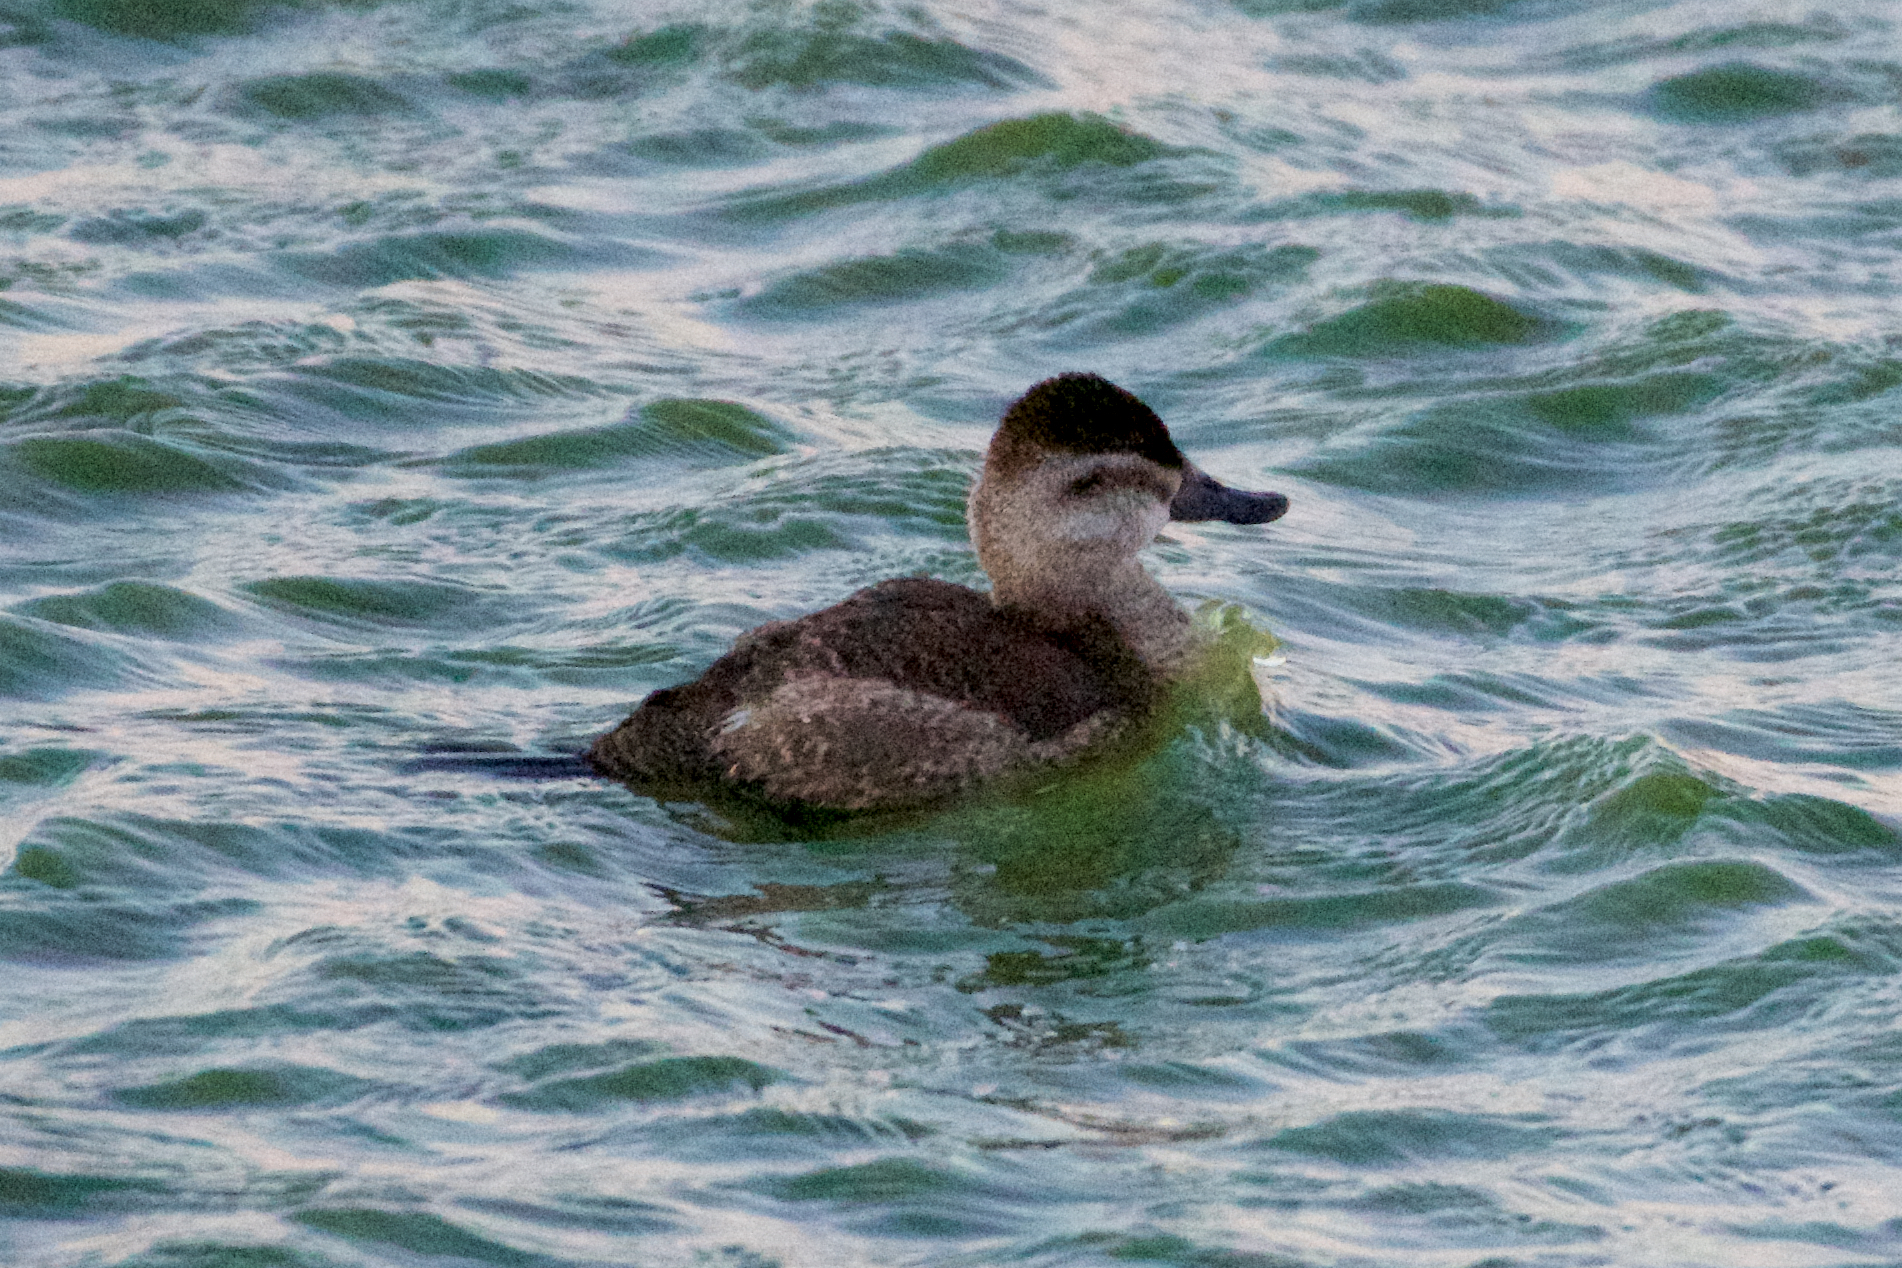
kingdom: Animalia
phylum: Chordata
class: Aves
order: Anseriformes
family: Anatidae
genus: Oxyura
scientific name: Oxyura jamaicensis
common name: Ruddy duck
